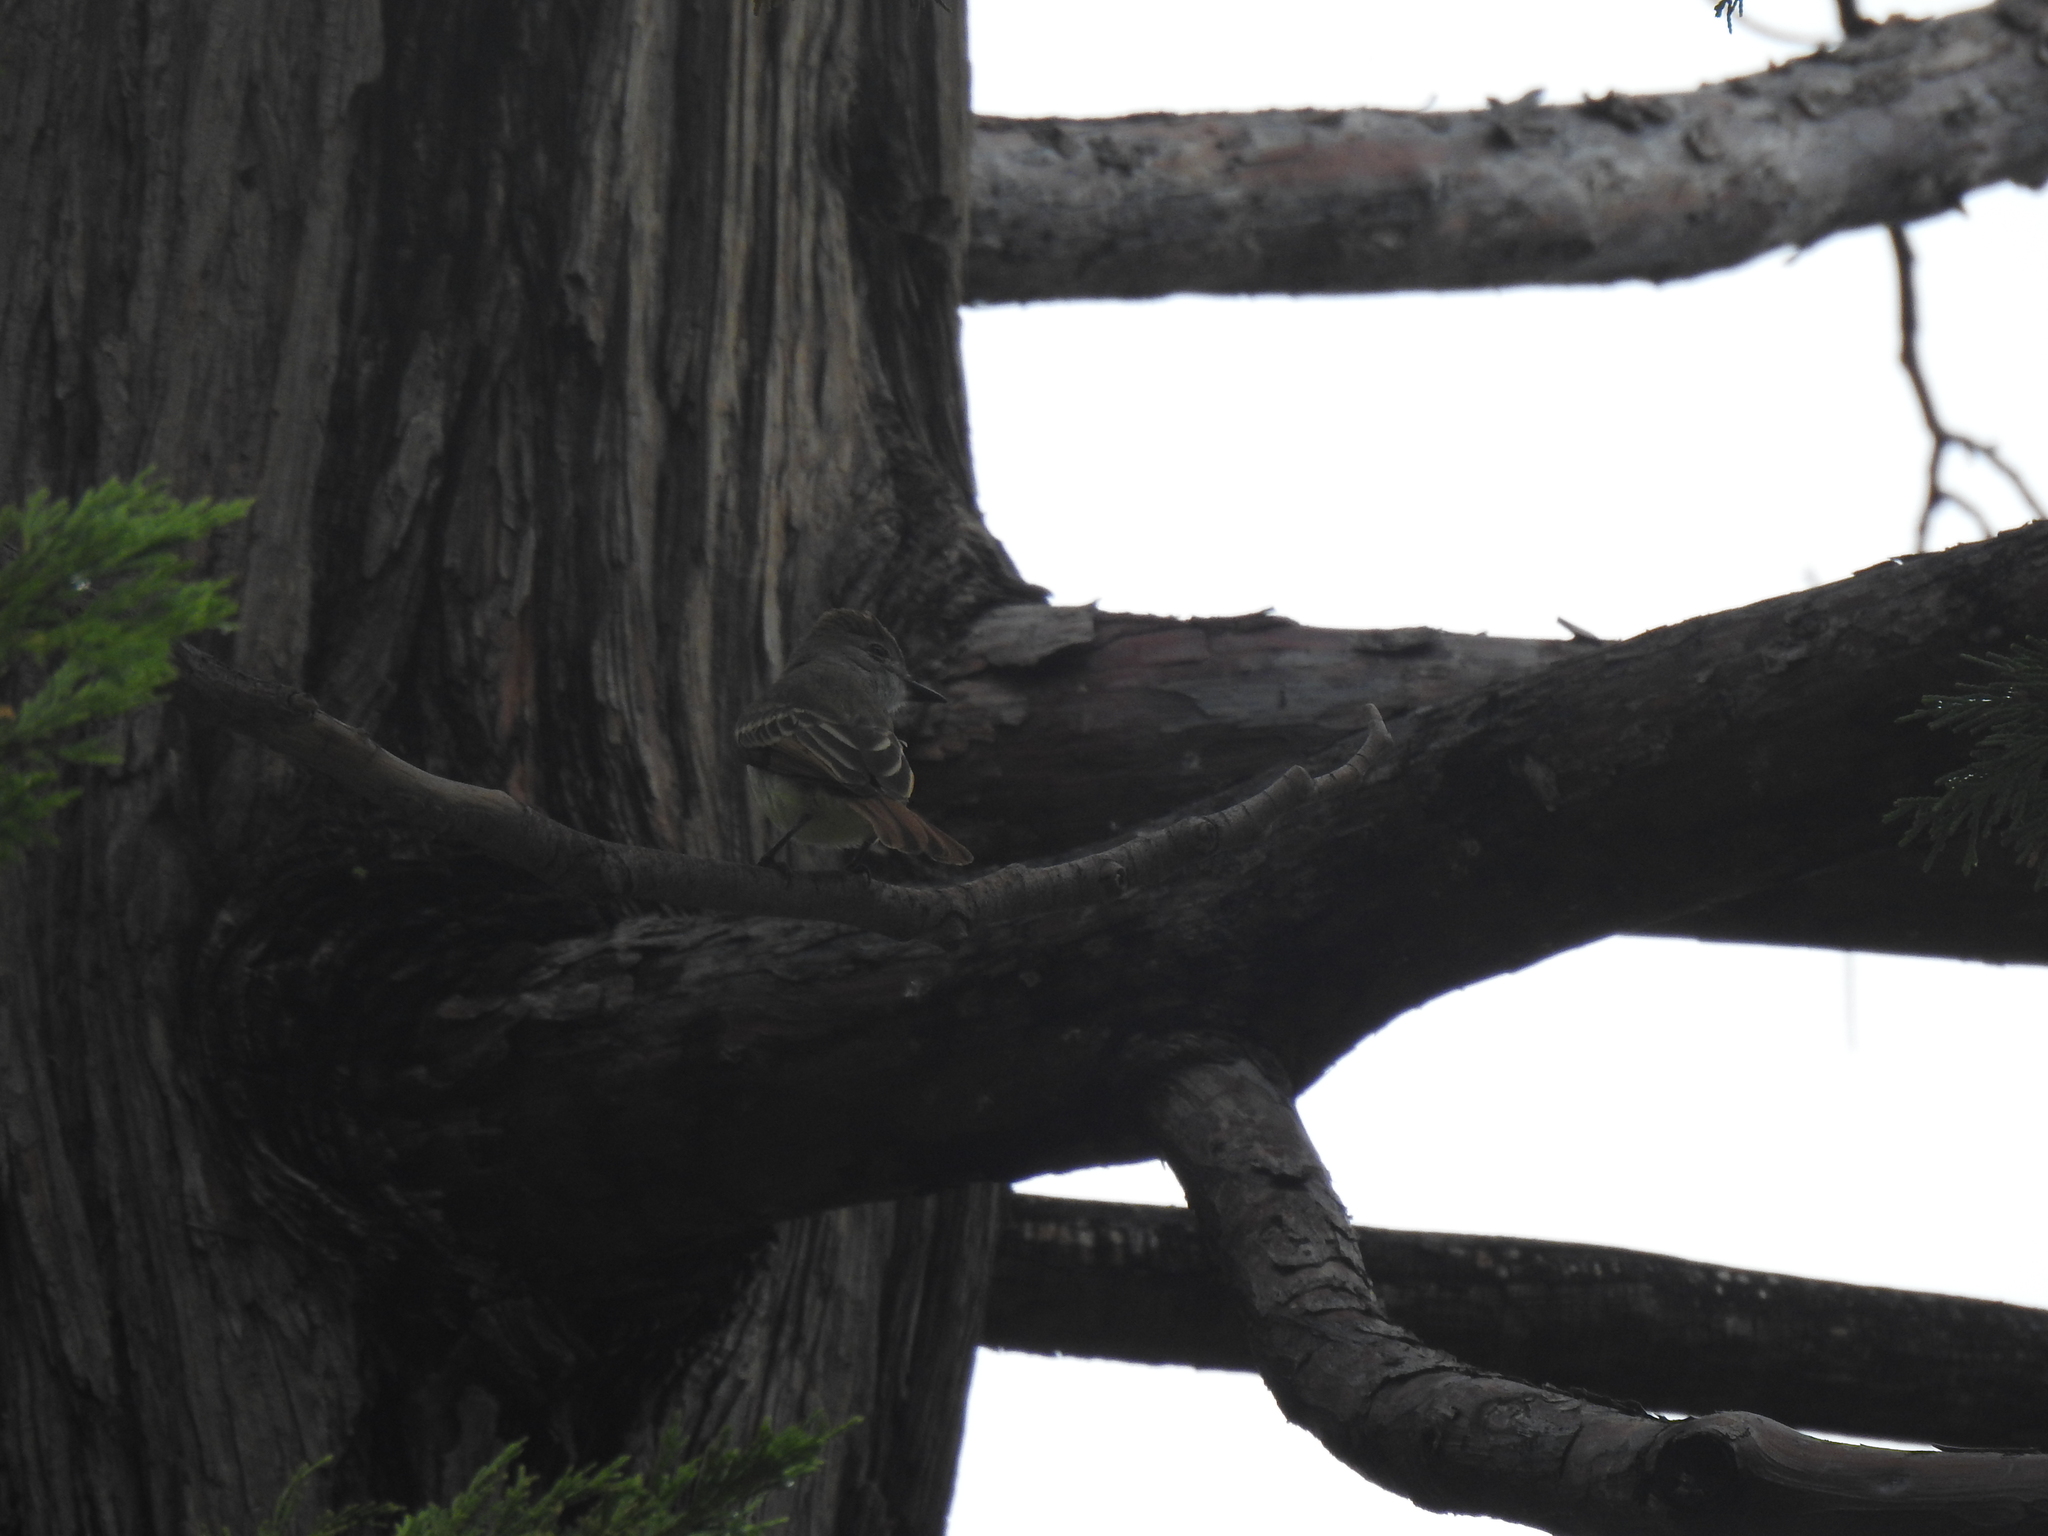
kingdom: Animalia
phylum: Chordata
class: Aves
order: Passeriformes
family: Tyrannidae
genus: Myiarchus
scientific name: Myiarchus cinerascens
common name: Ash-throated flycatcher
